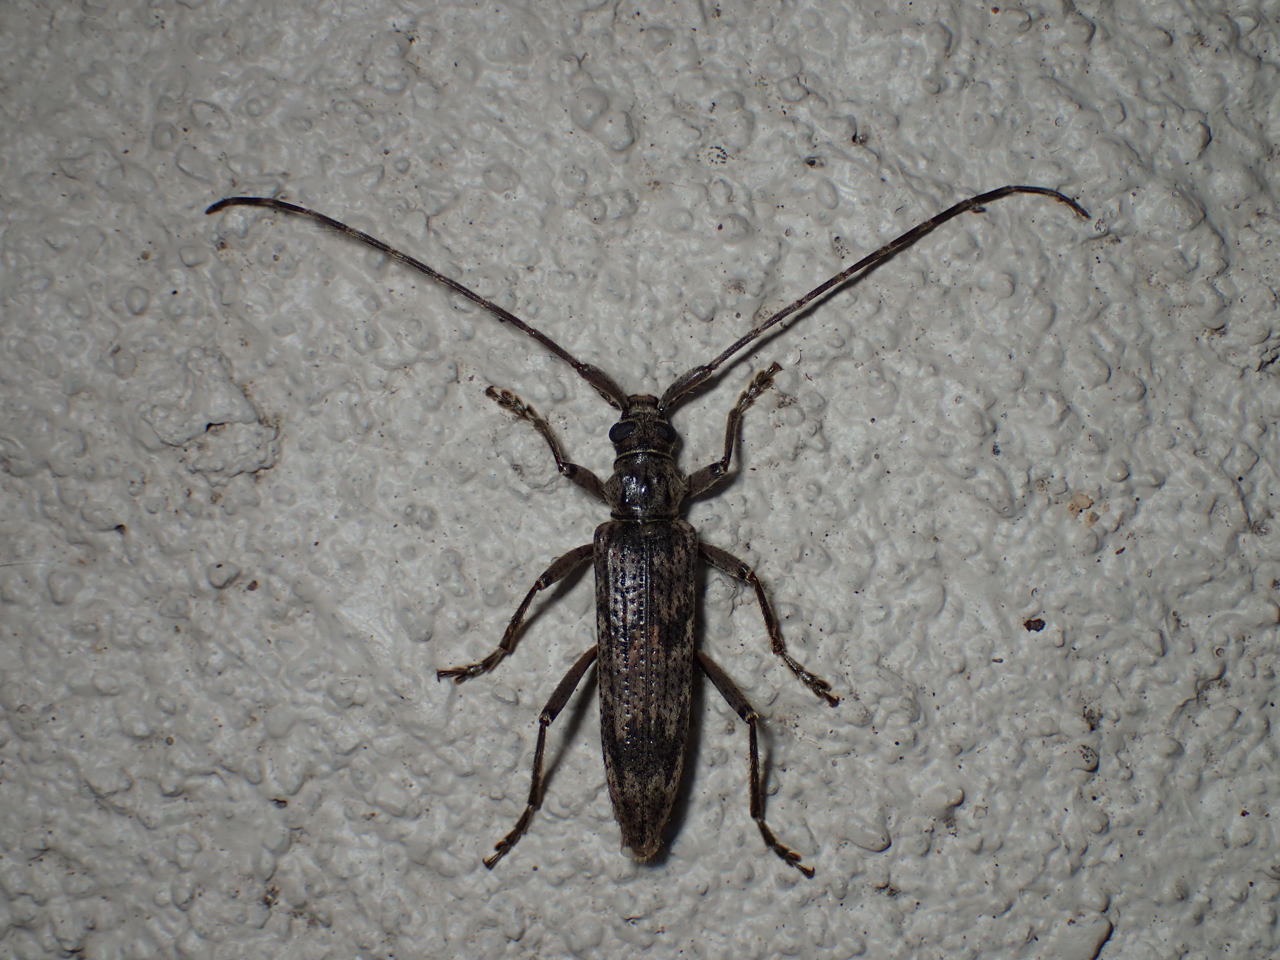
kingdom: Animalia
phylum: Arthropoda
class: Insecta
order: Coleoptera
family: Cerambycidae
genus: Elytrimitatrix
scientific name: Elytrimitatrix undata
